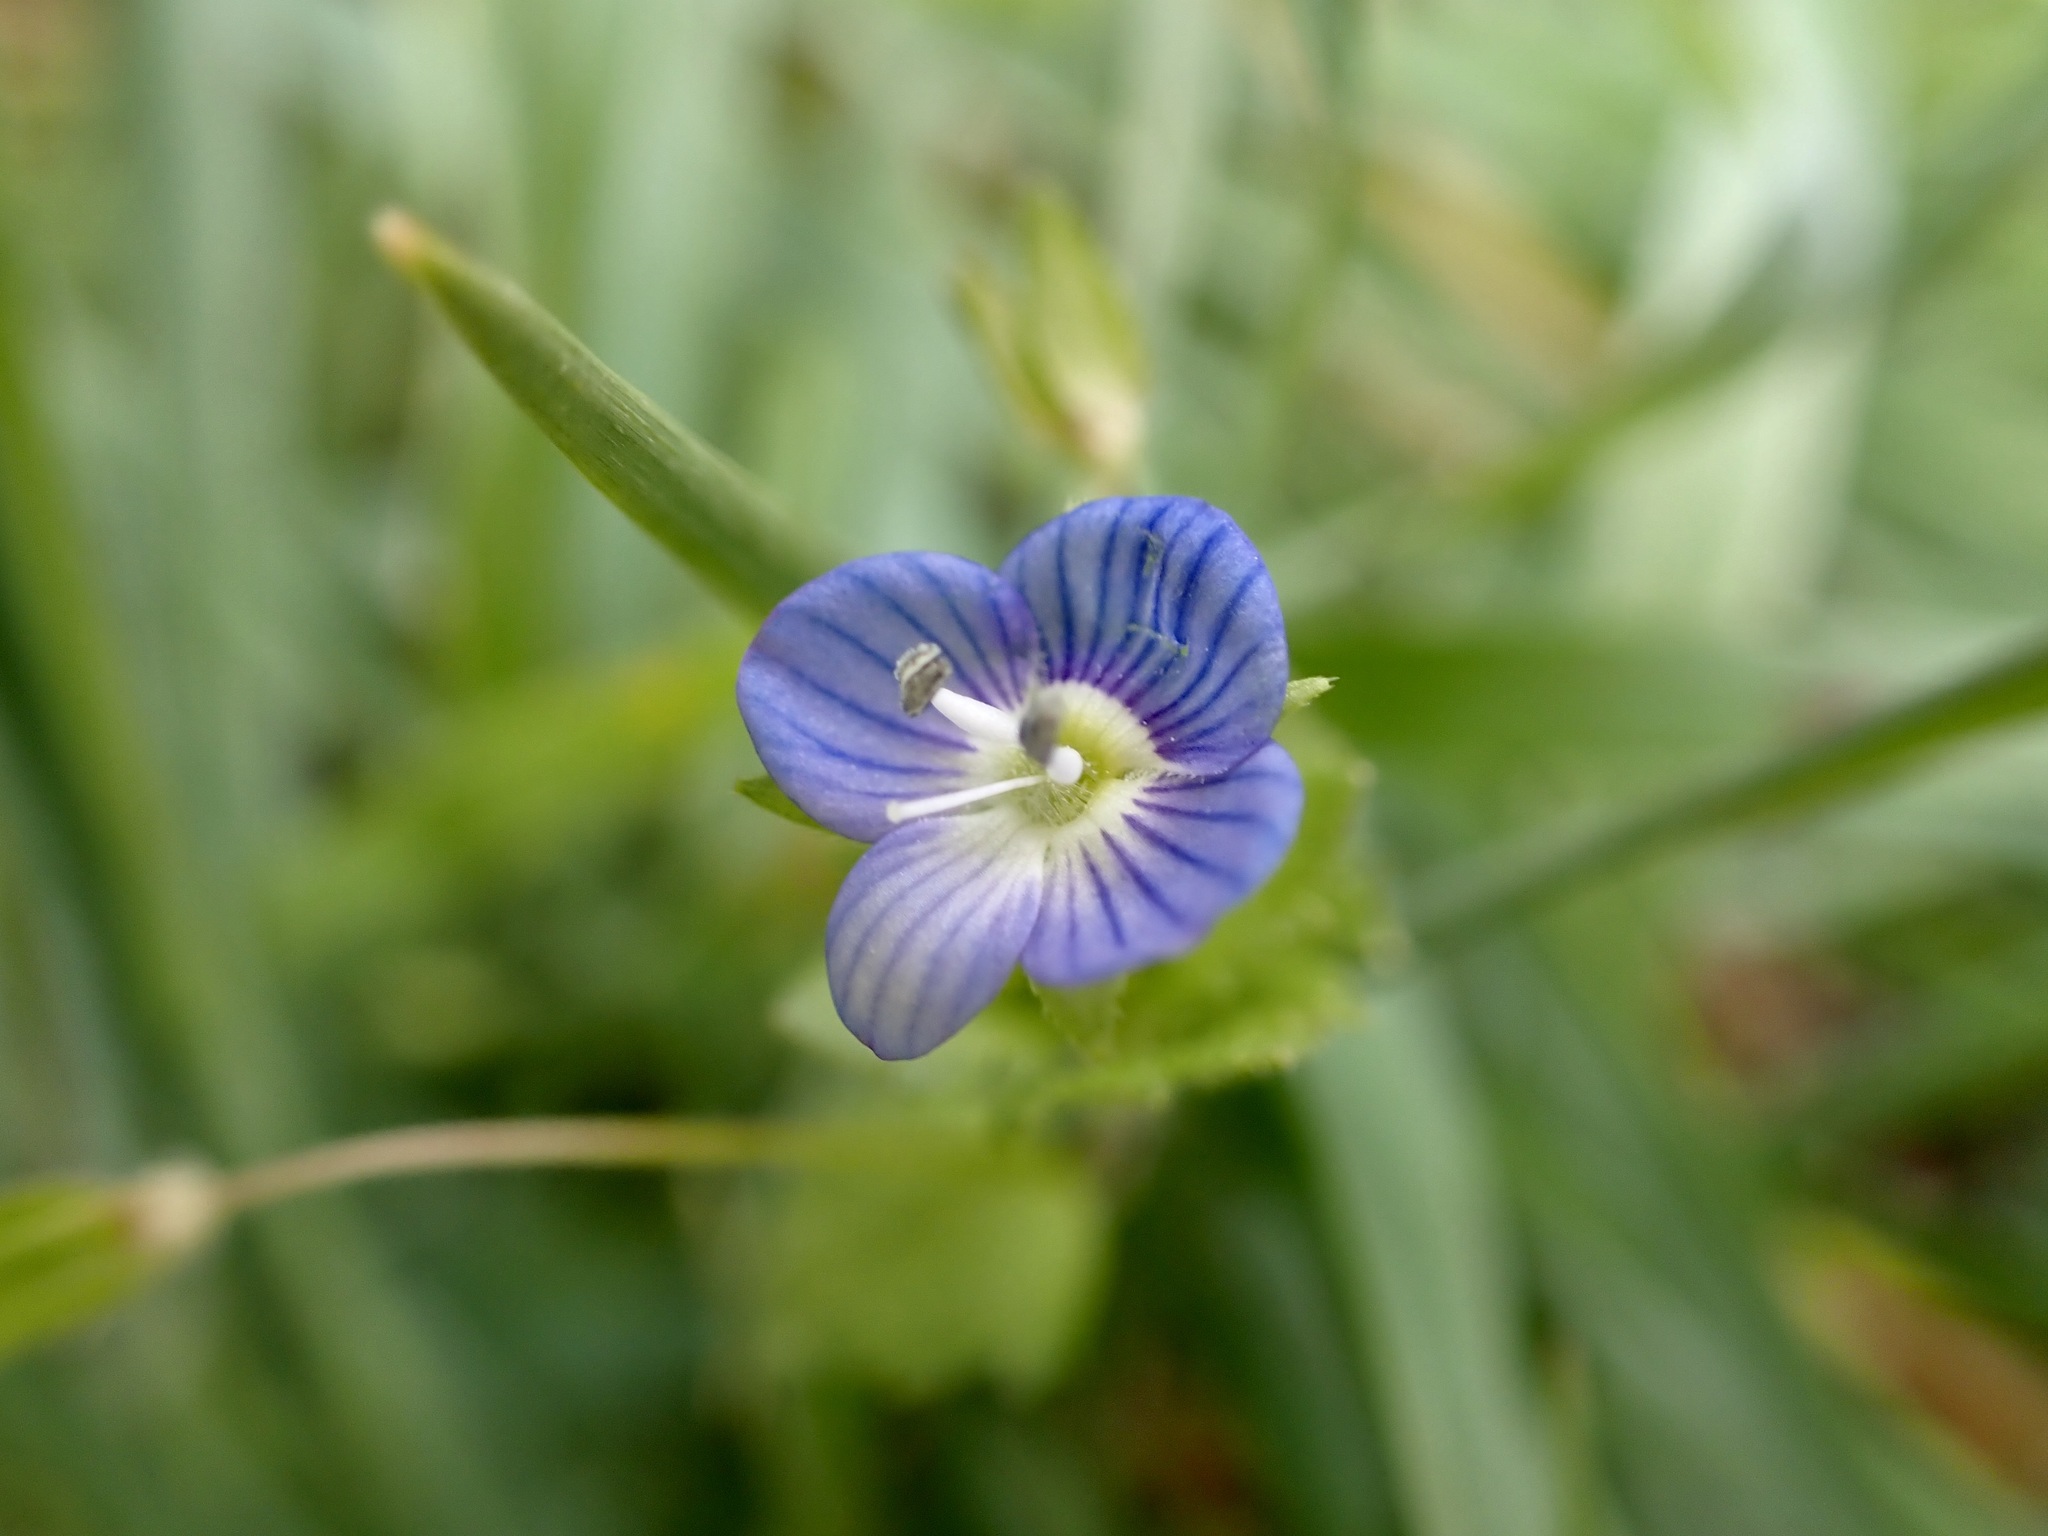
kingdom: Plantae
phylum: Tracheophyta
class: Magnoliopsida
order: Lamiales
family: Plantaginaceae
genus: Veronica
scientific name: Veronica persica
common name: Common field-speedwell
